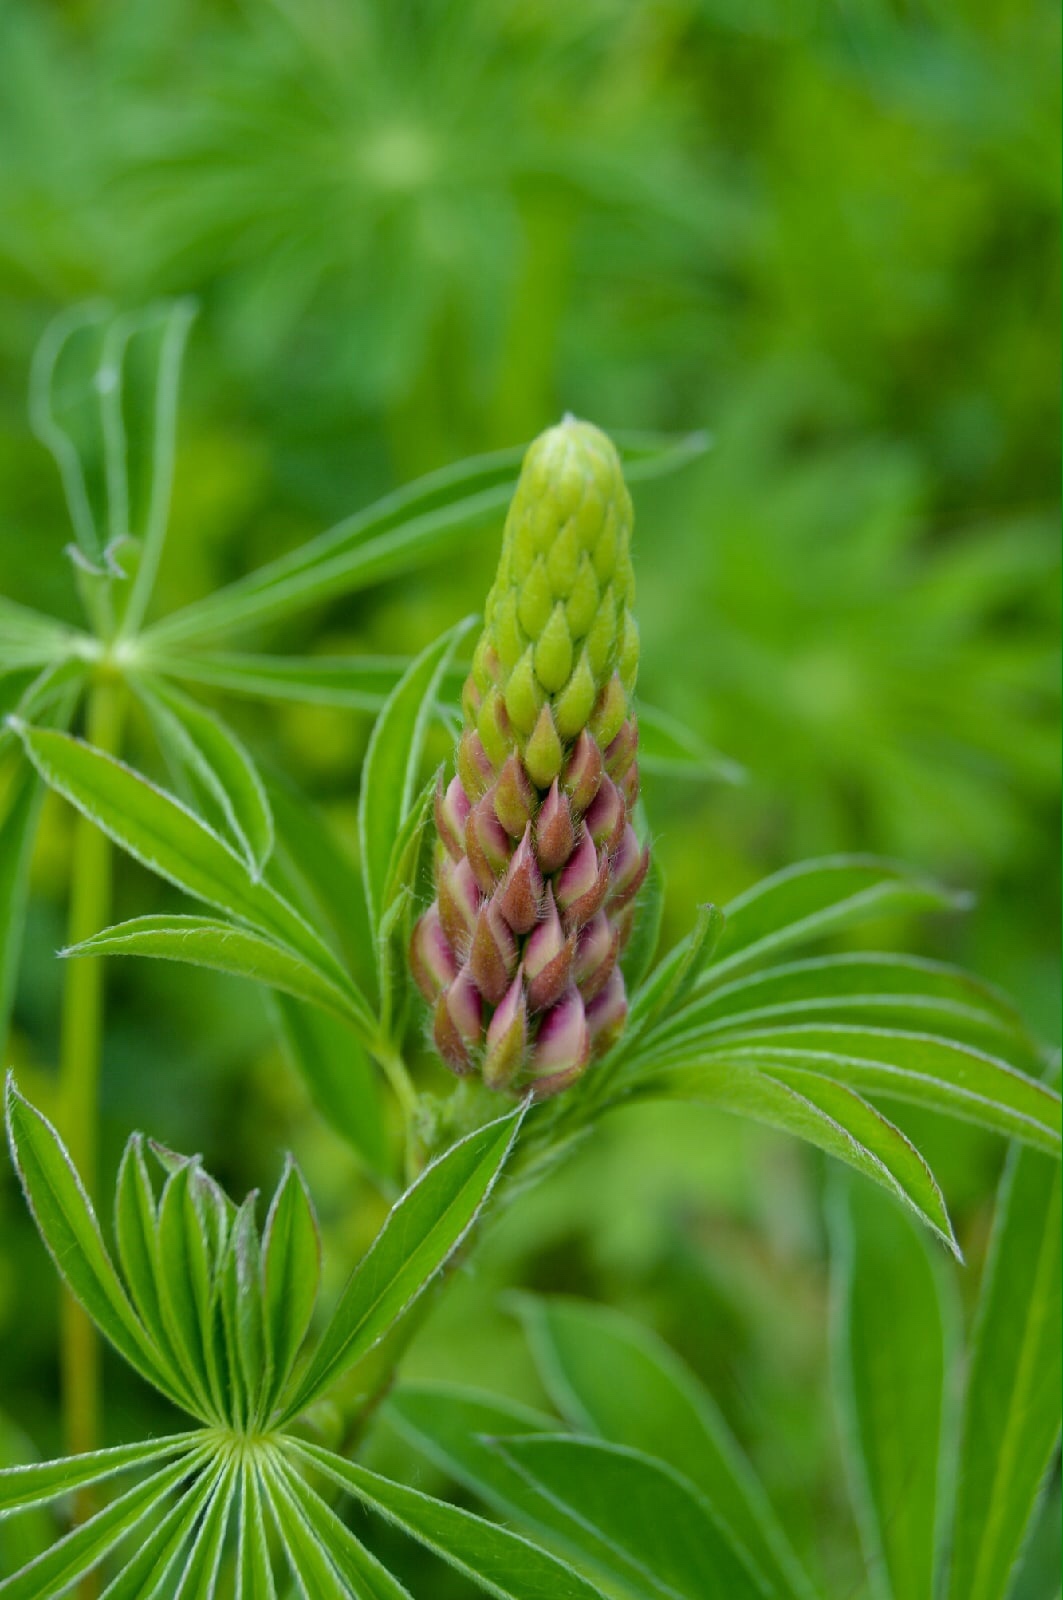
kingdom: Plantae
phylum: Tracheophyta
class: Magnoliopsida
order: Fabales
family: Fabaceae
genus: Lupinus
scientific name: Lupinus polyphyllus
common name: Garden lupin
